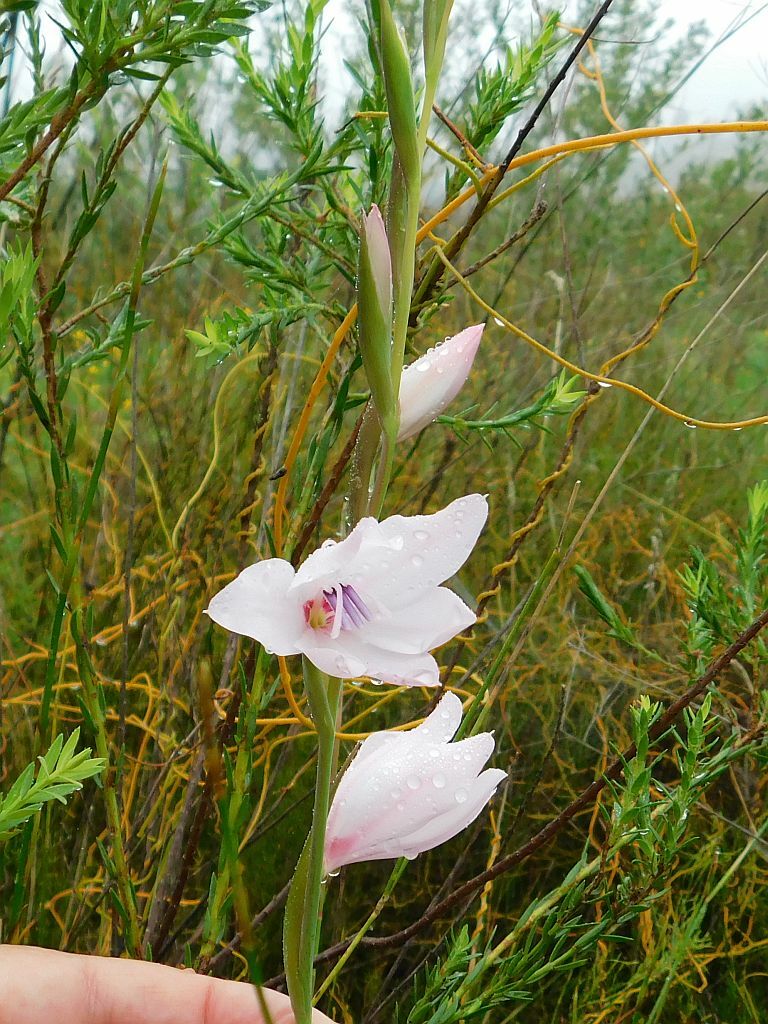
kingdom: Plantae
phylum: Tracheophyta
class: Liliopsida
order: Asparagales
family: Iridaceae
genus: Gladiolus
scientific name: Gladiolus carneus
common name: Painted-lady
